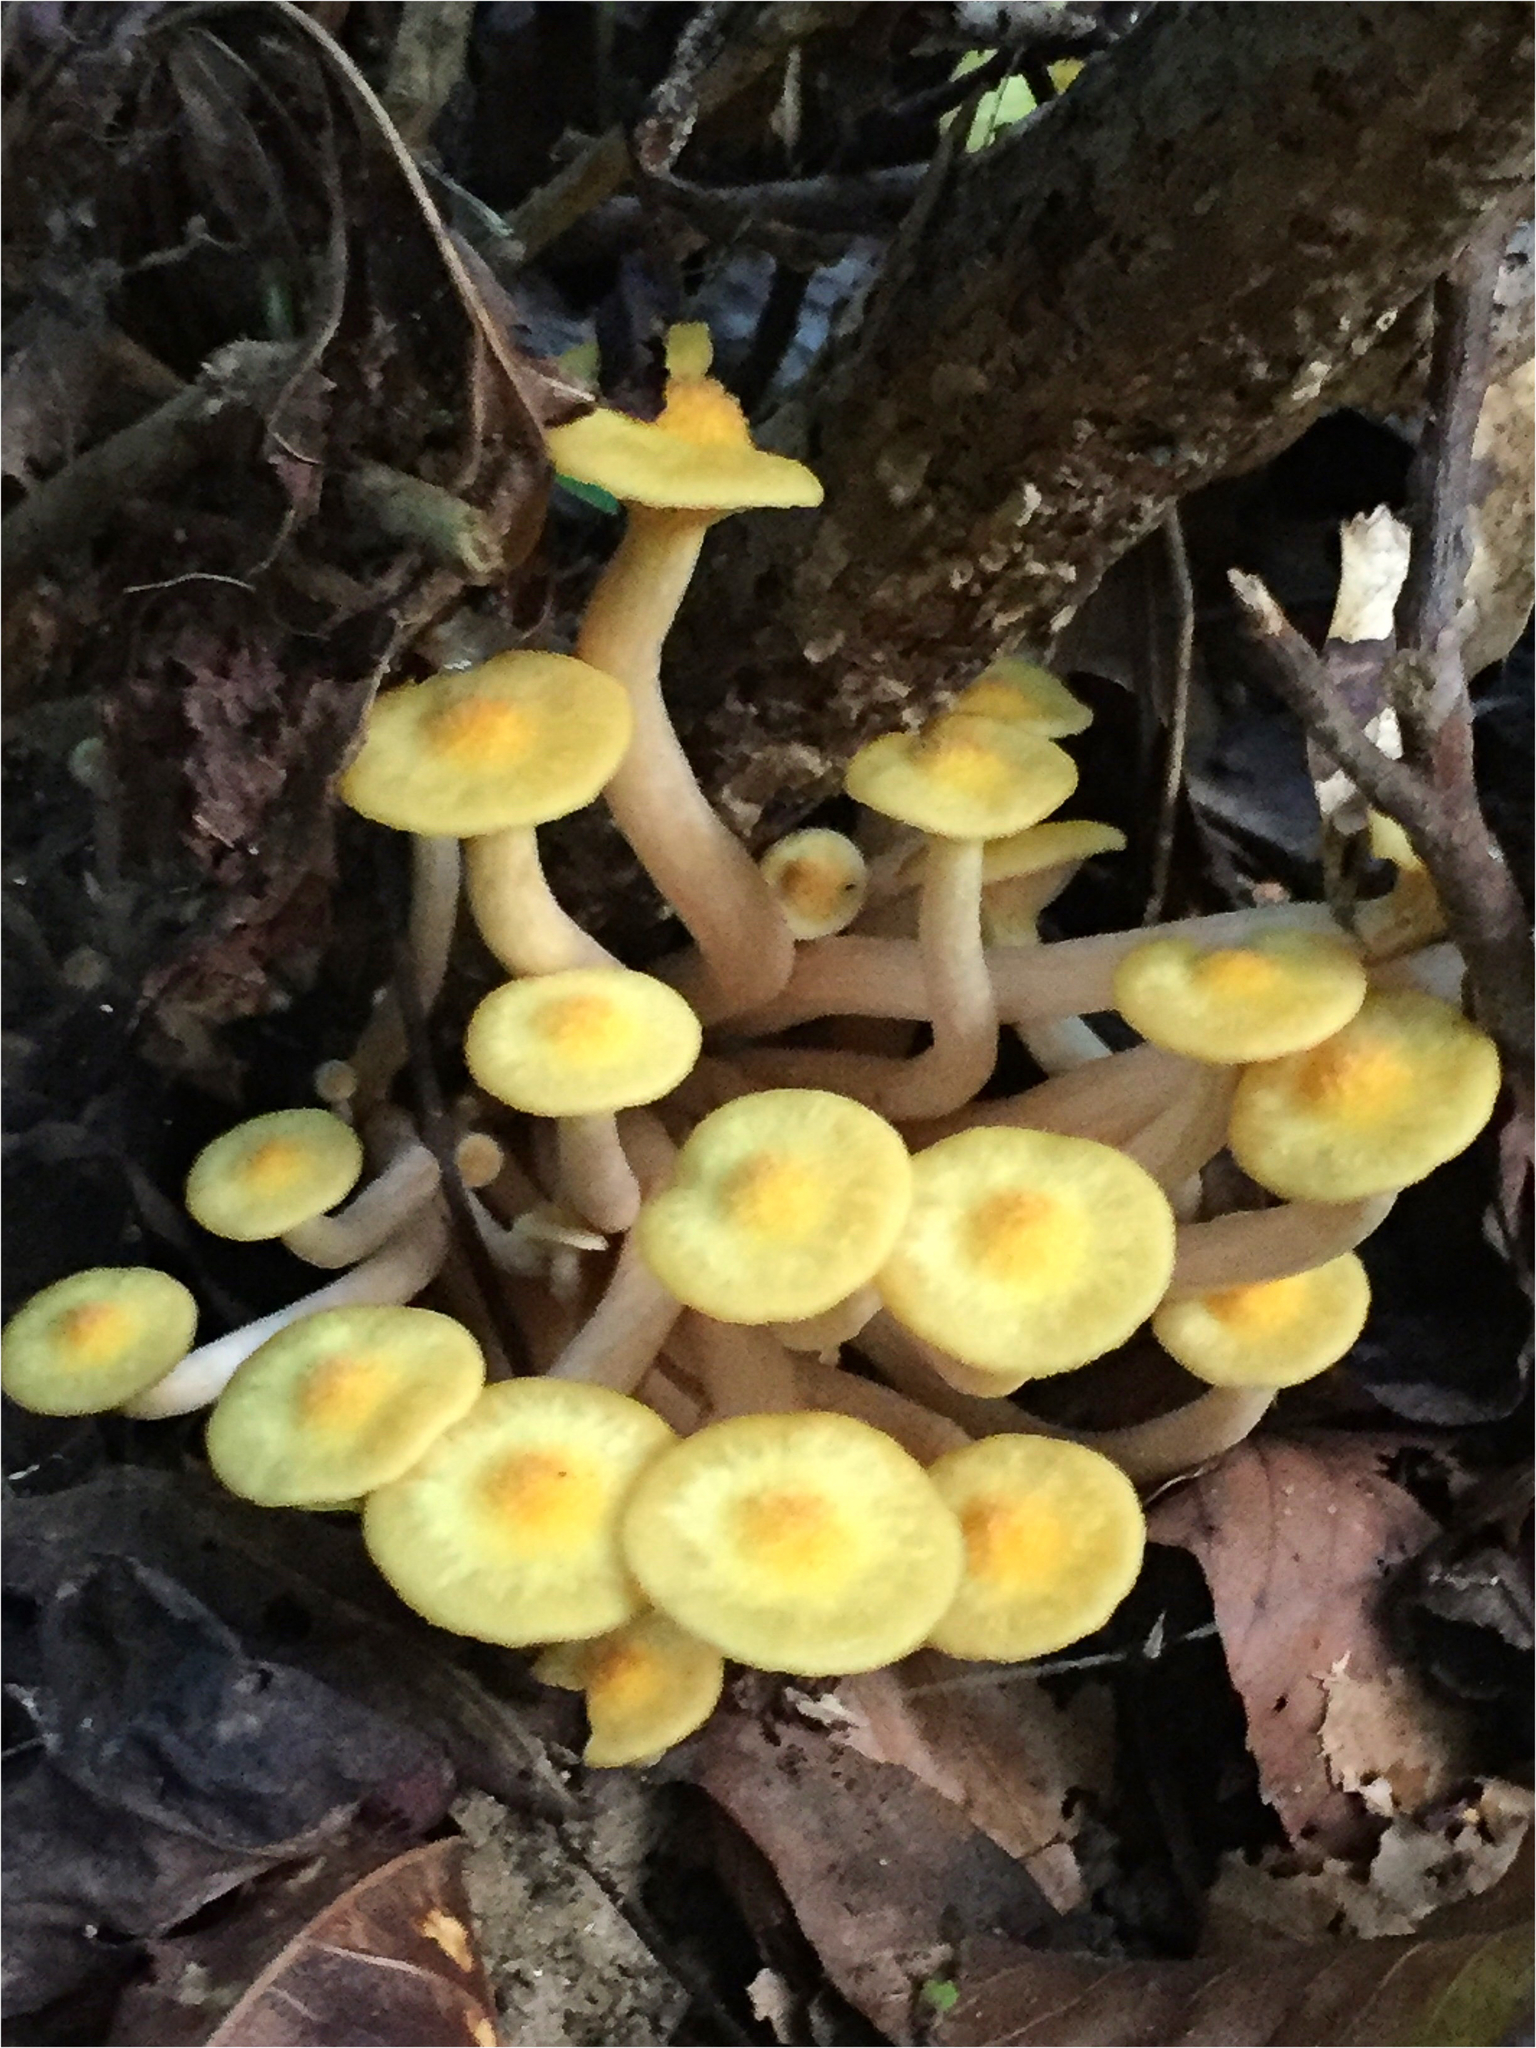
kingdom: Fungi
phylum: Basidiomycota
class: Agaricomycetes
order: Agaricales
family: Physalacriaceae
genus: Desarmillaria
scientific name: Desarmillaria caespitosa
